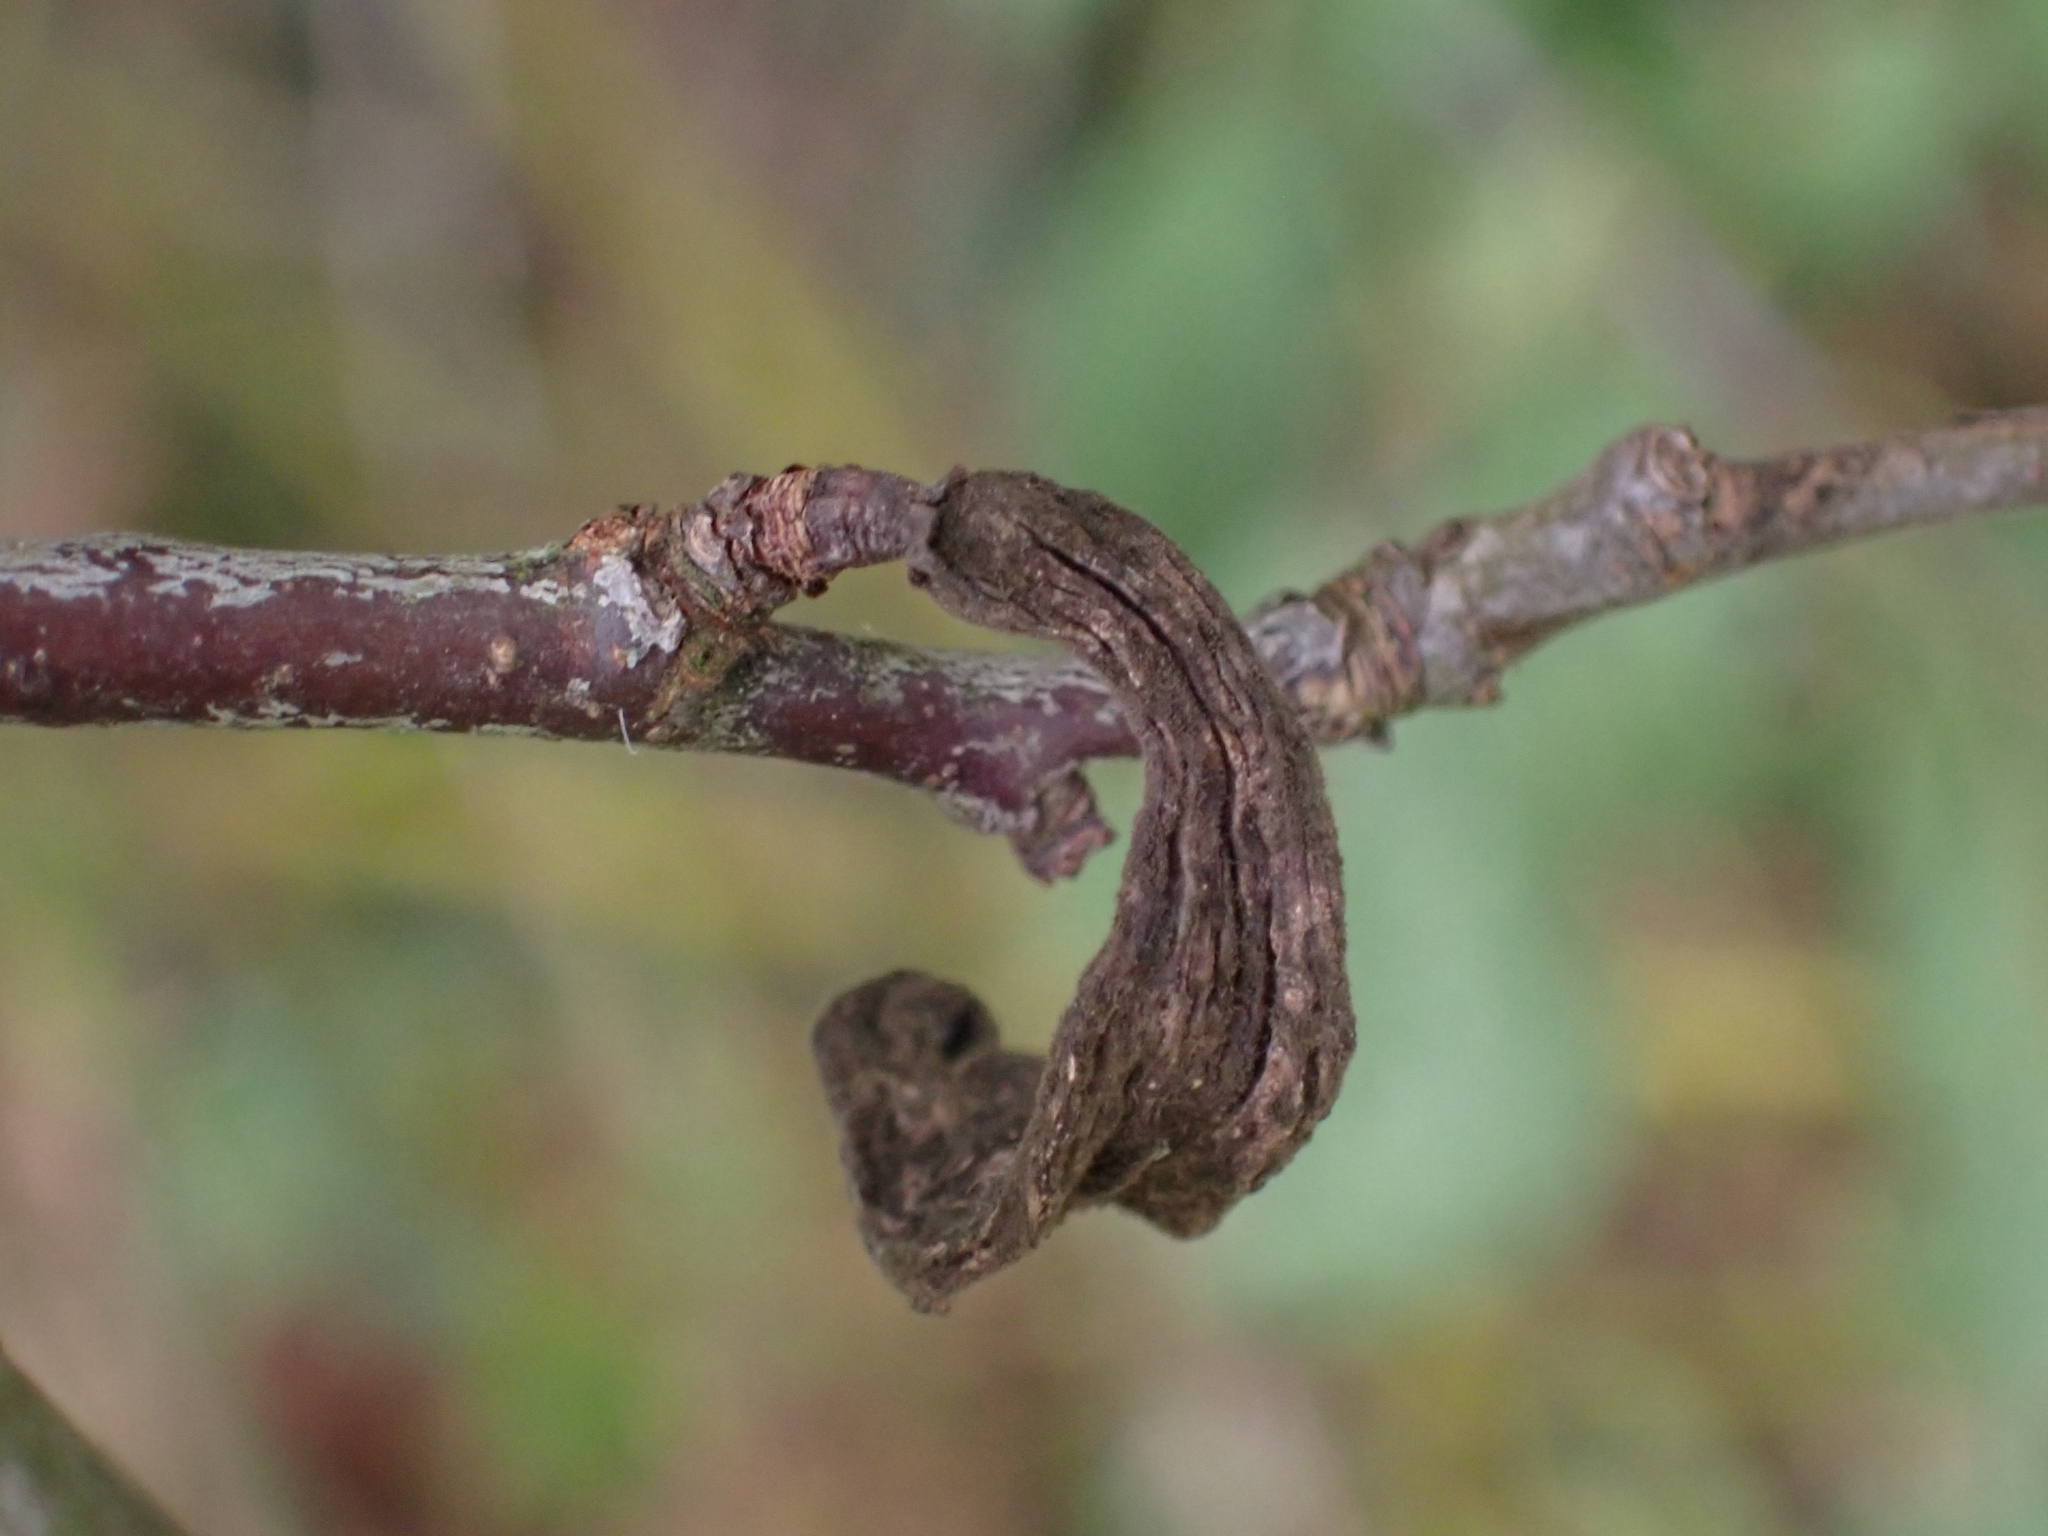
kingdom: Fungi
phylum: Ascomycota
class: Taphrinomycetes
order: Taphrinales
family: Taphrinaceae
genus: Taphrina
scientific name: Taphrina pruni
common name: Pocket plum
